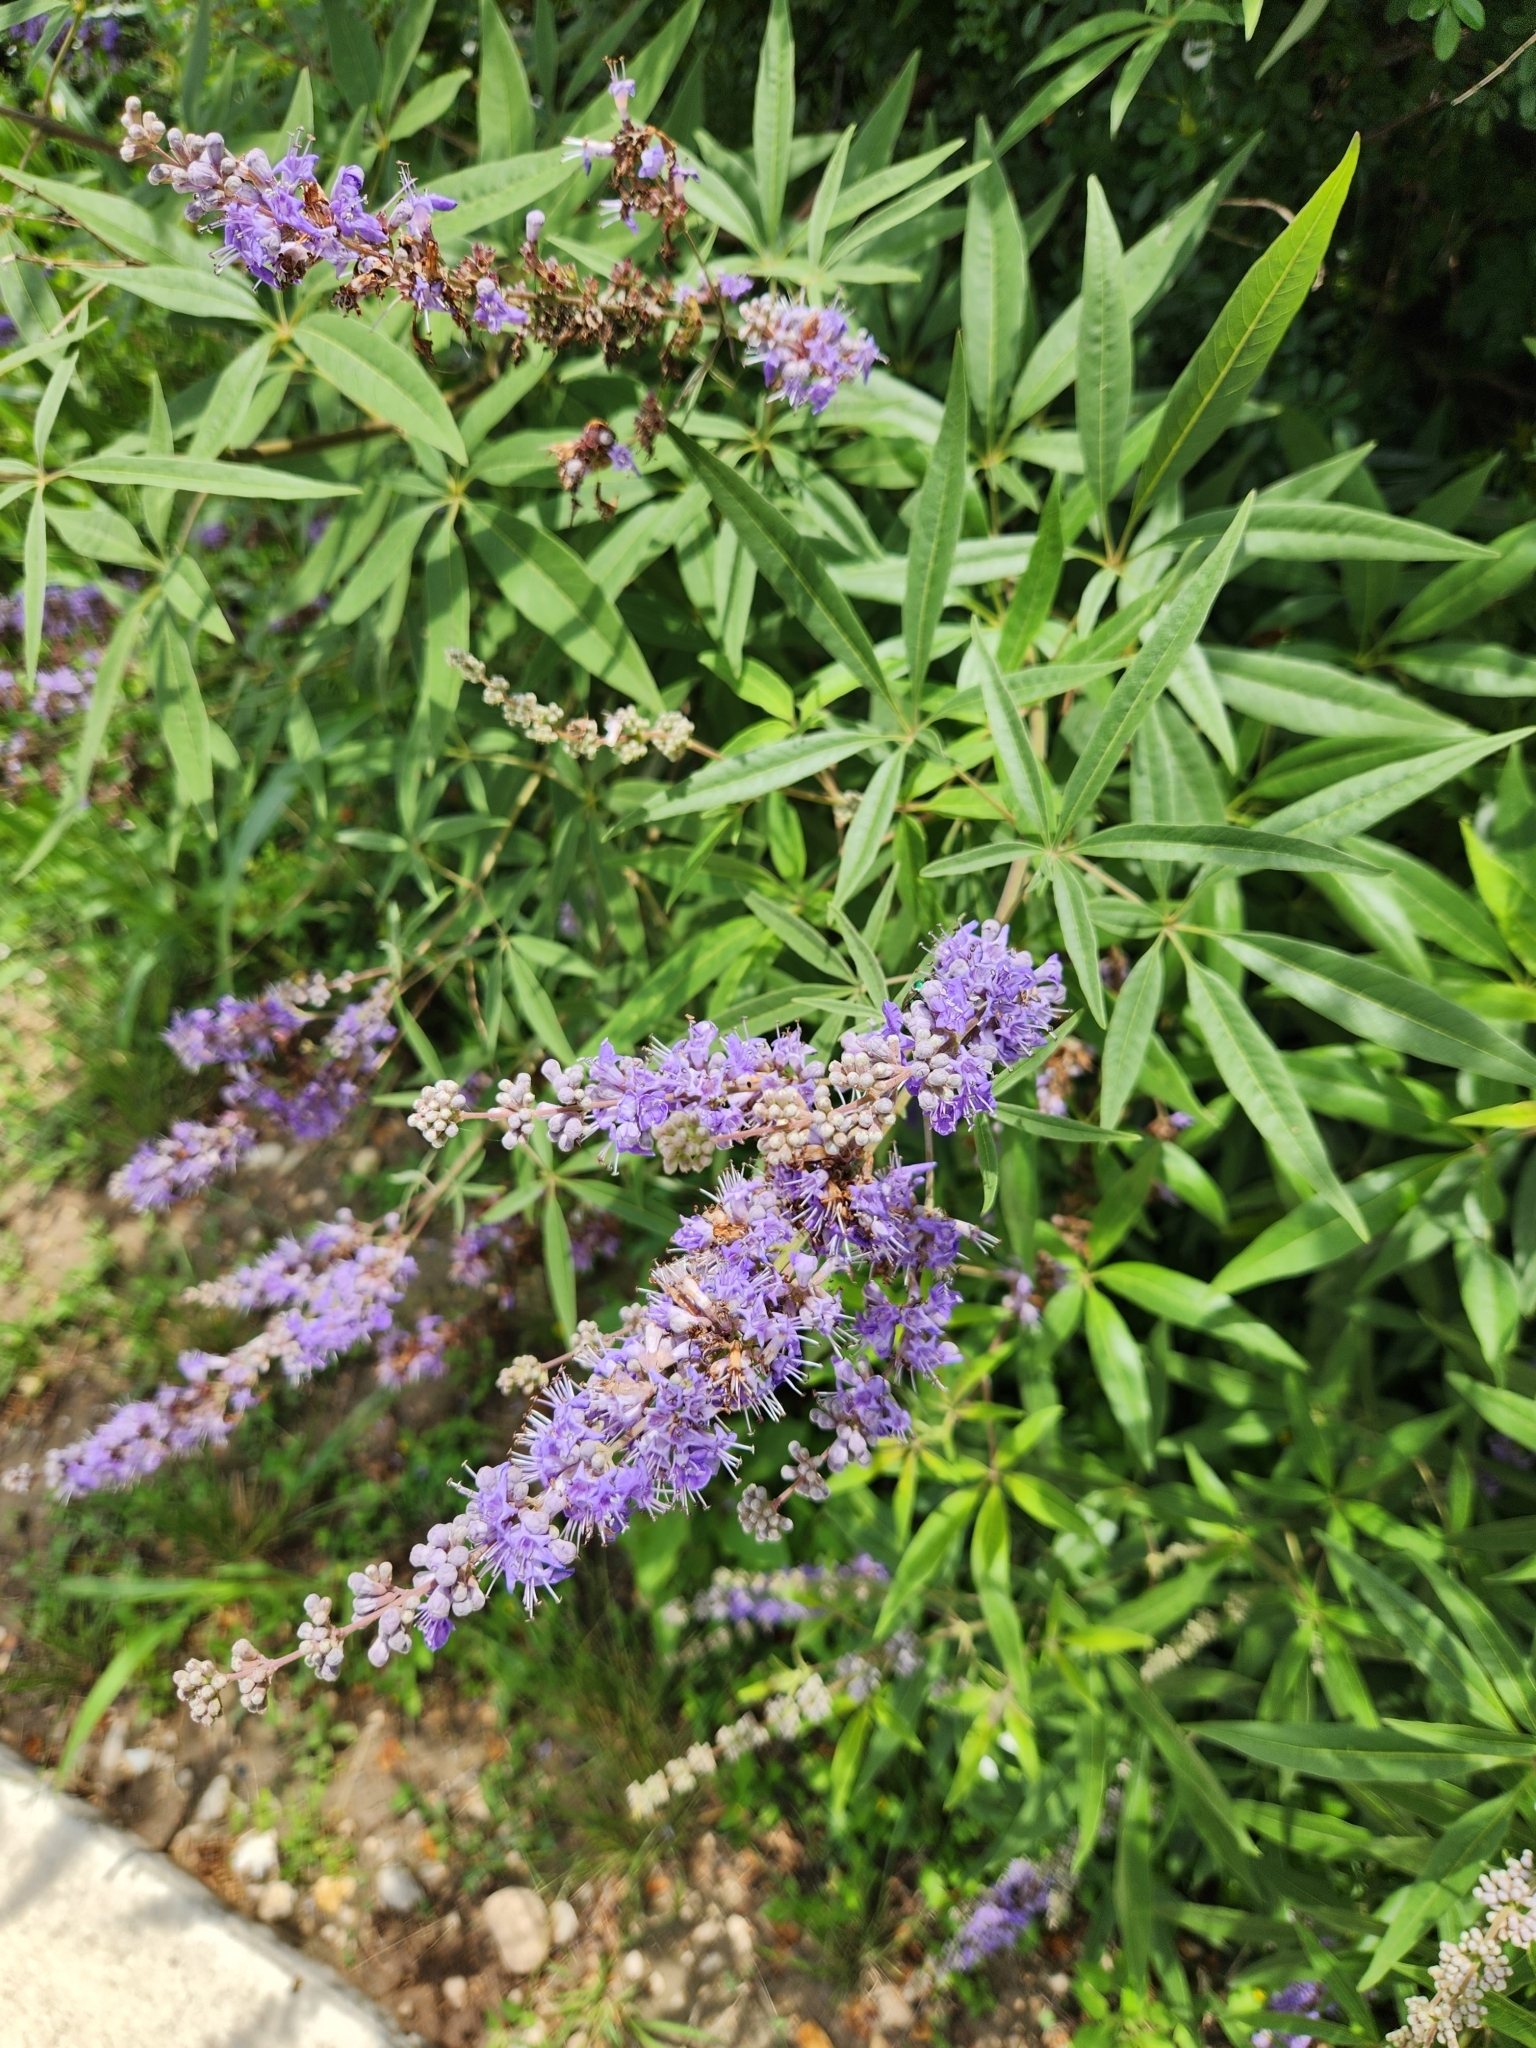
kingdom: Plantae
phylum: Tracheophyta
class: Magnoliopsida
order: Lamiales
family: Lamiaceae
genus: Vitex
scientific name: Vitex agnus-castus
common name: Chasteberry
